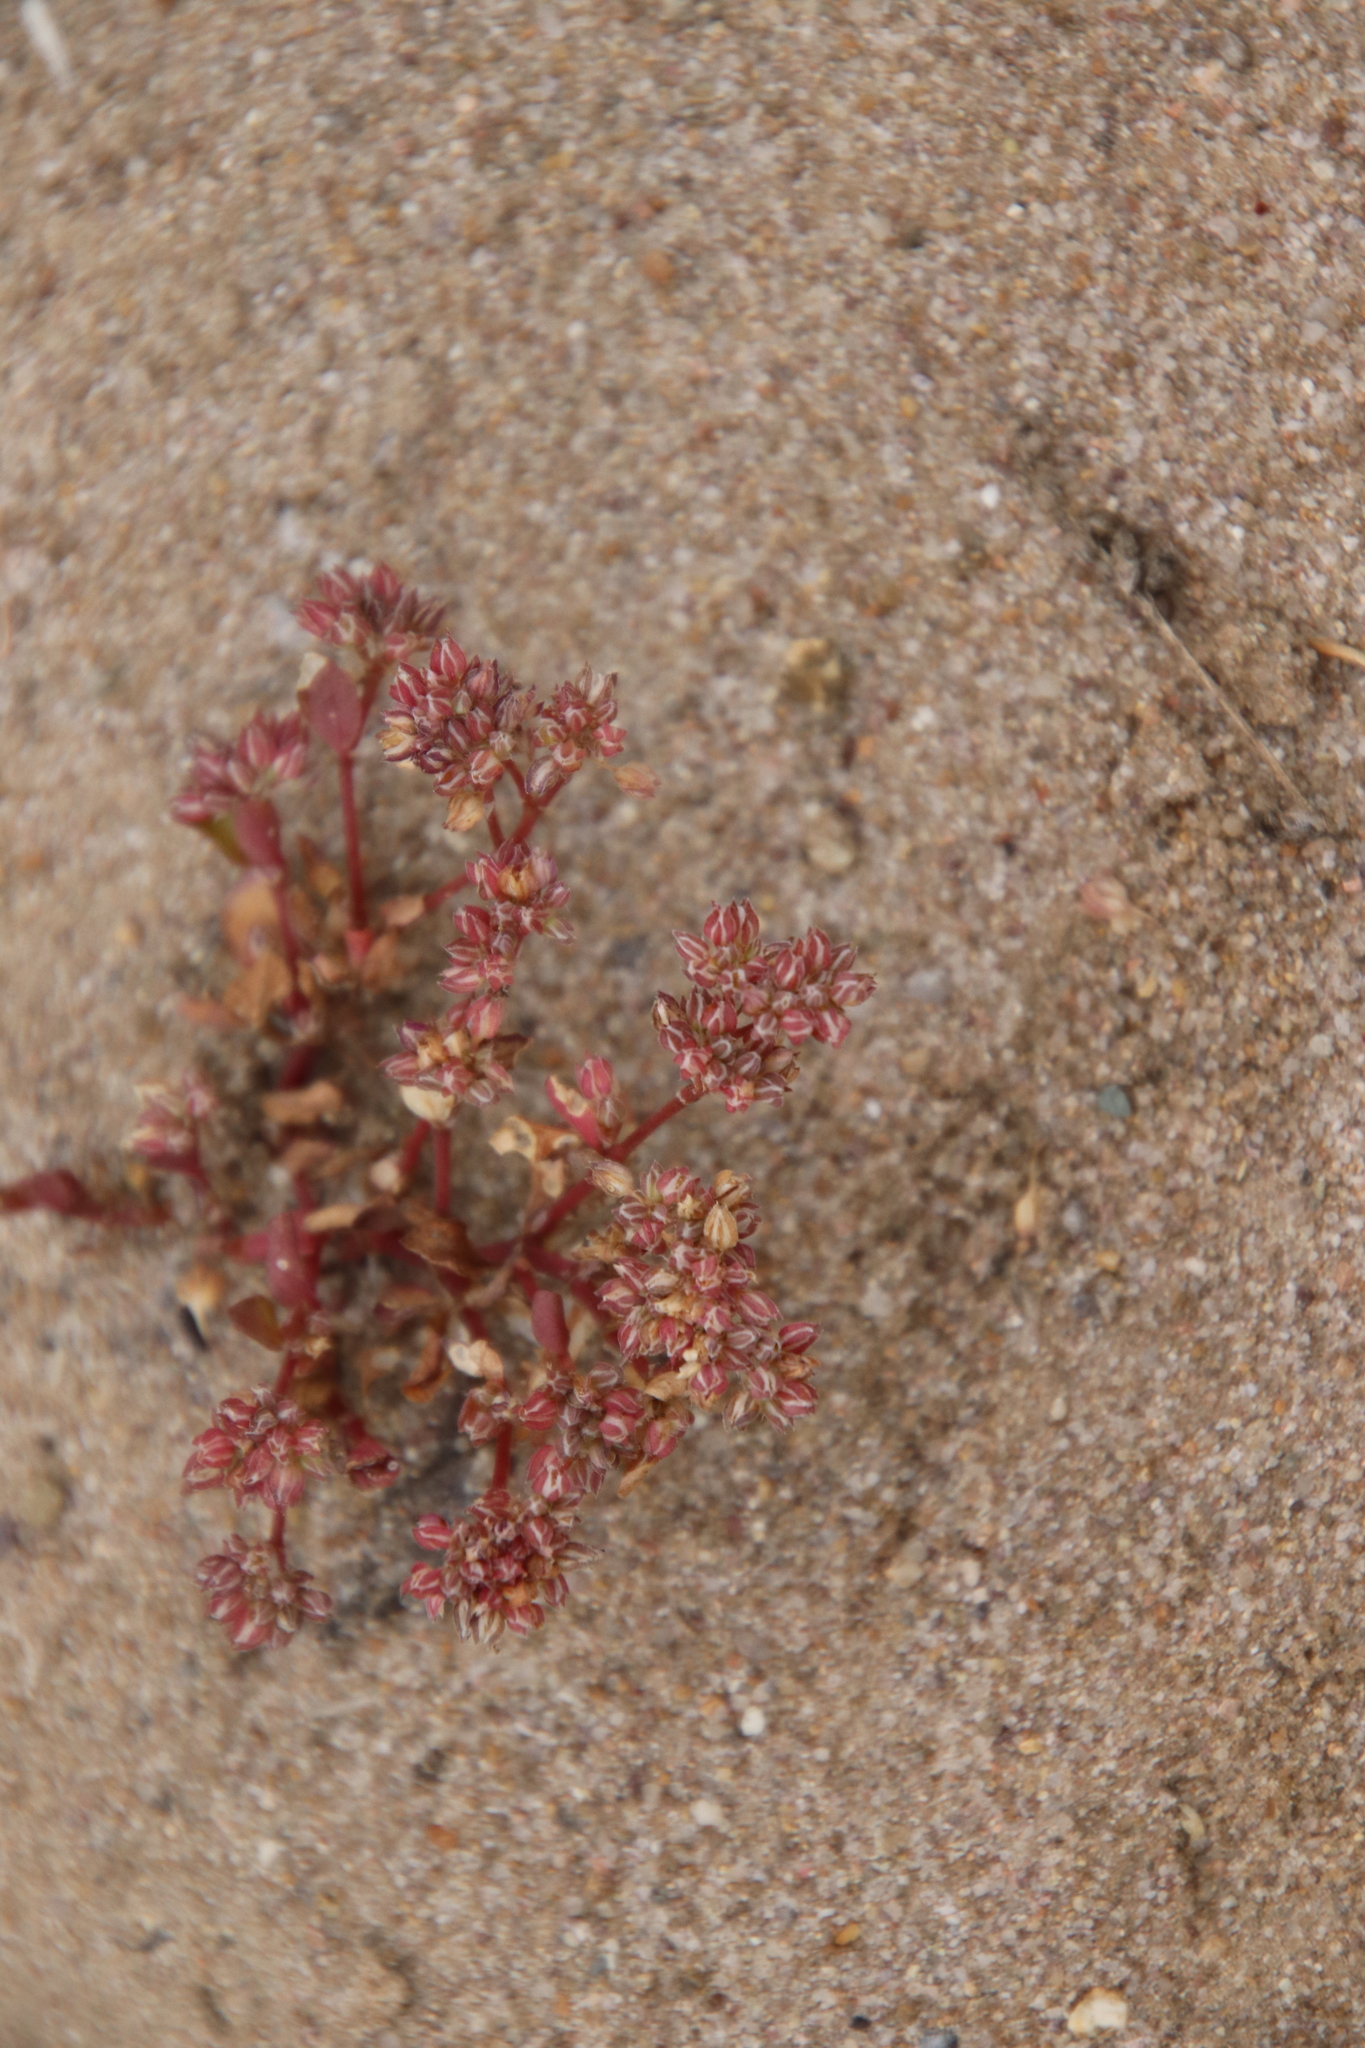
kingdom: Plantae
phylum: Tracheophyta
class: Magnoliopsida
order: Caryophyllales
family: Caryophyllaceae
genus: Polycarpon
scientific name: Polycarpon tetraphyllum
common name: Four-leaved all-seed
